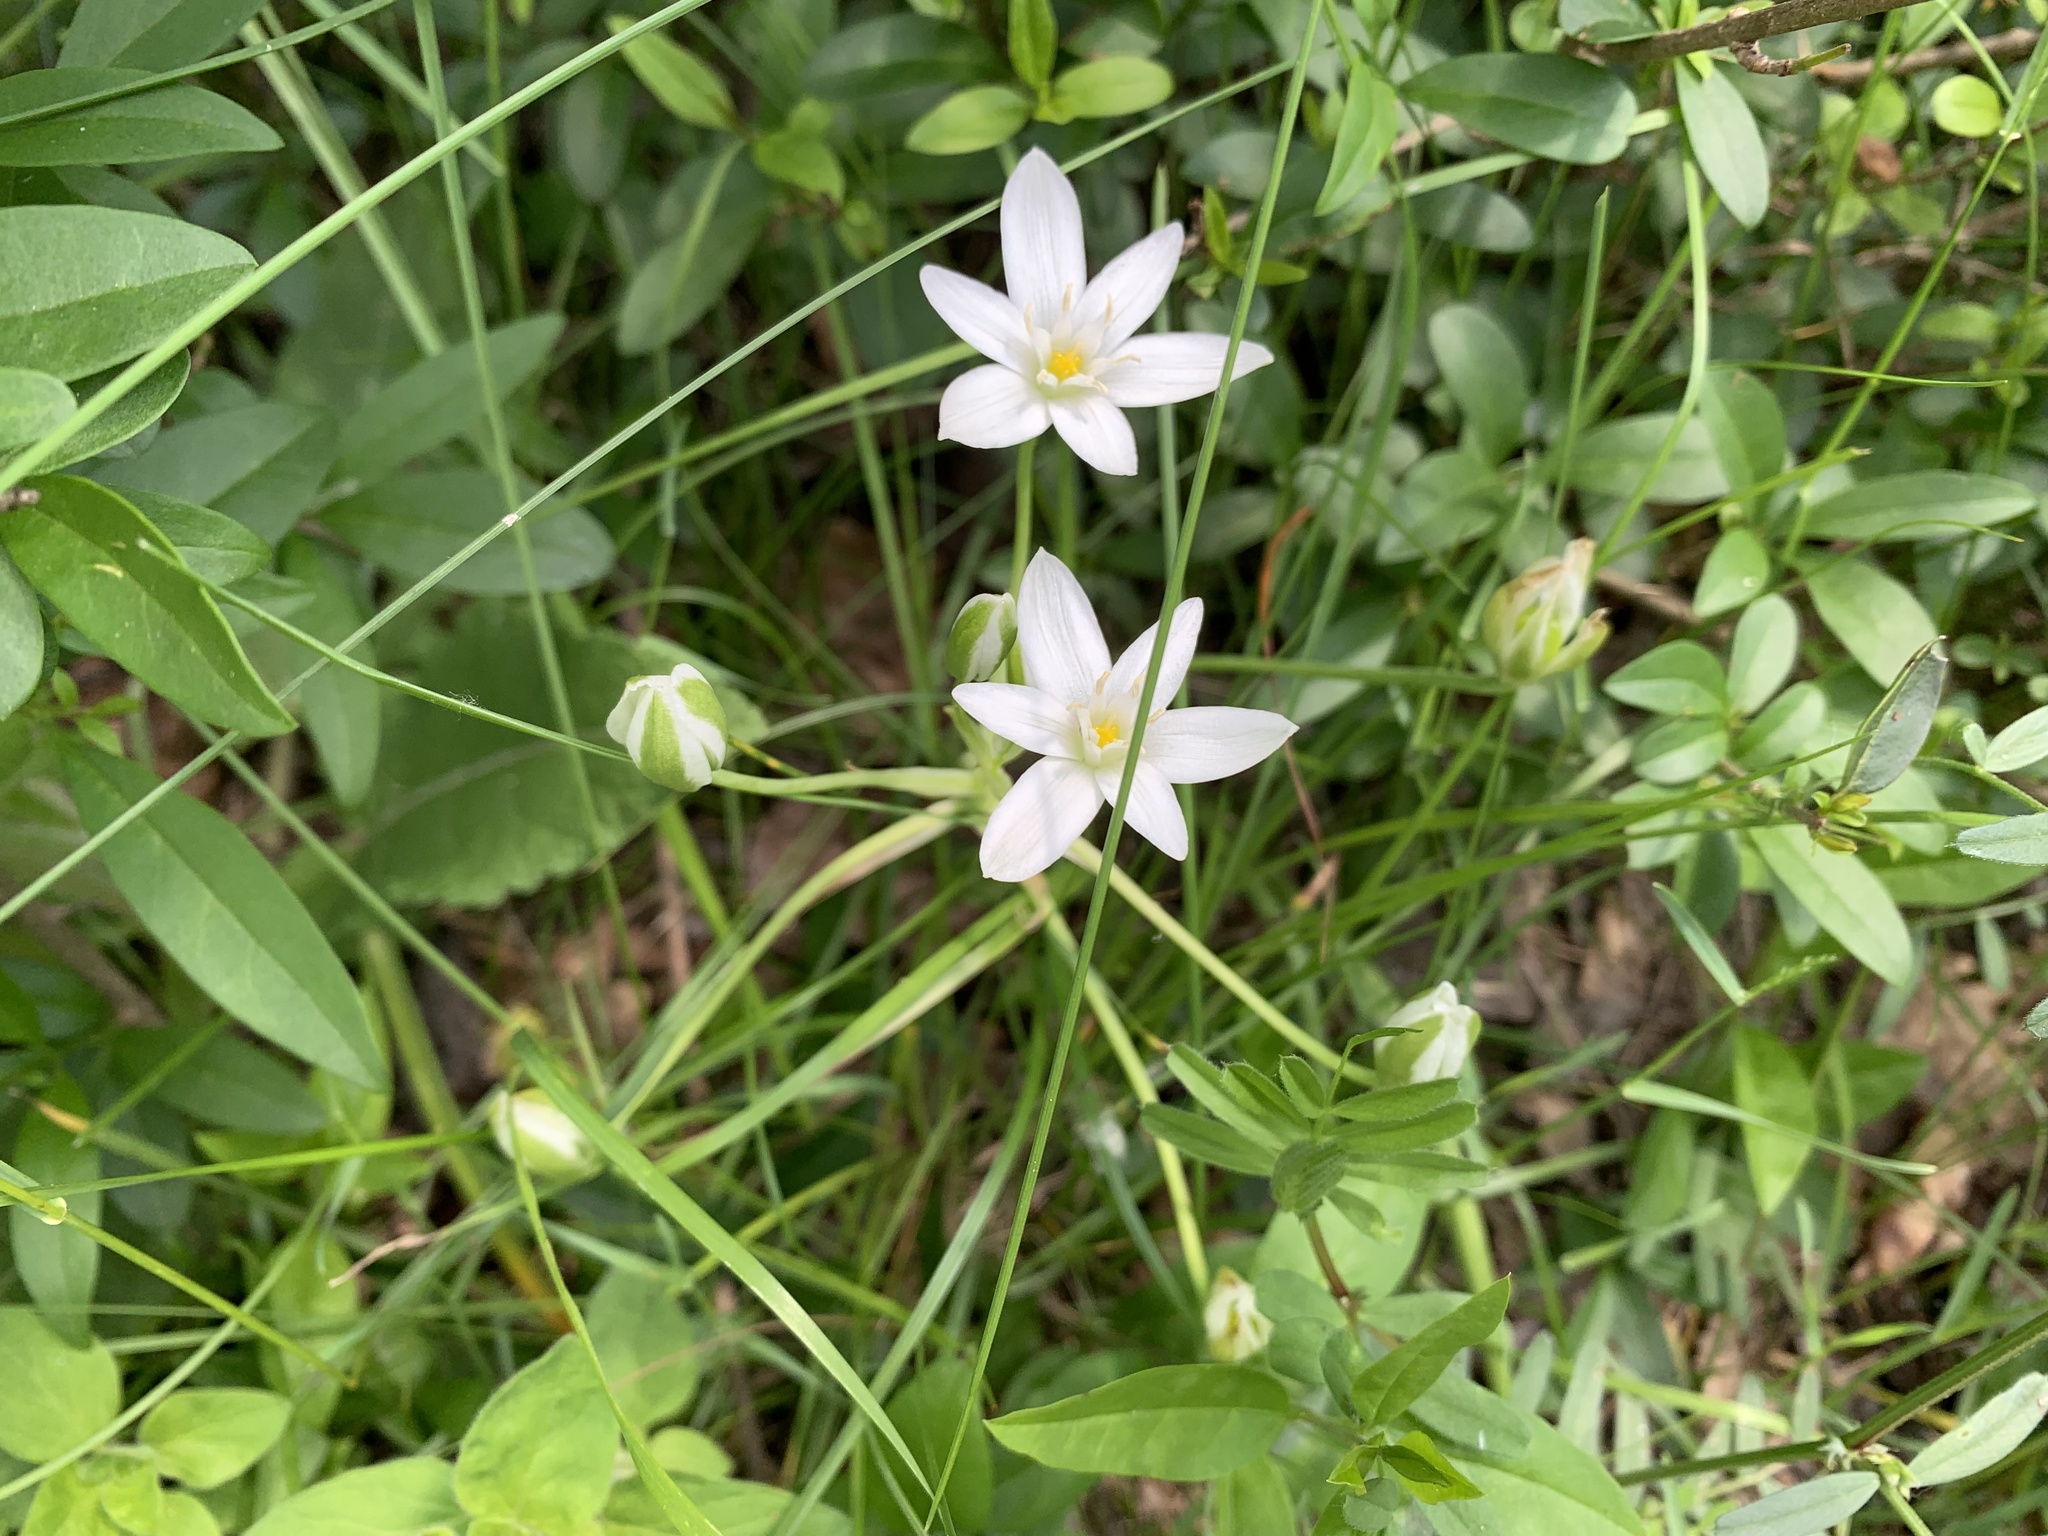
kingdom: Plantae
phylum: Tracheophyta
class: Liliopsida
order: Asparagales
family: Asparagaceae
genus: Ornithogalum
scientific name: Ornithogalum divergens
